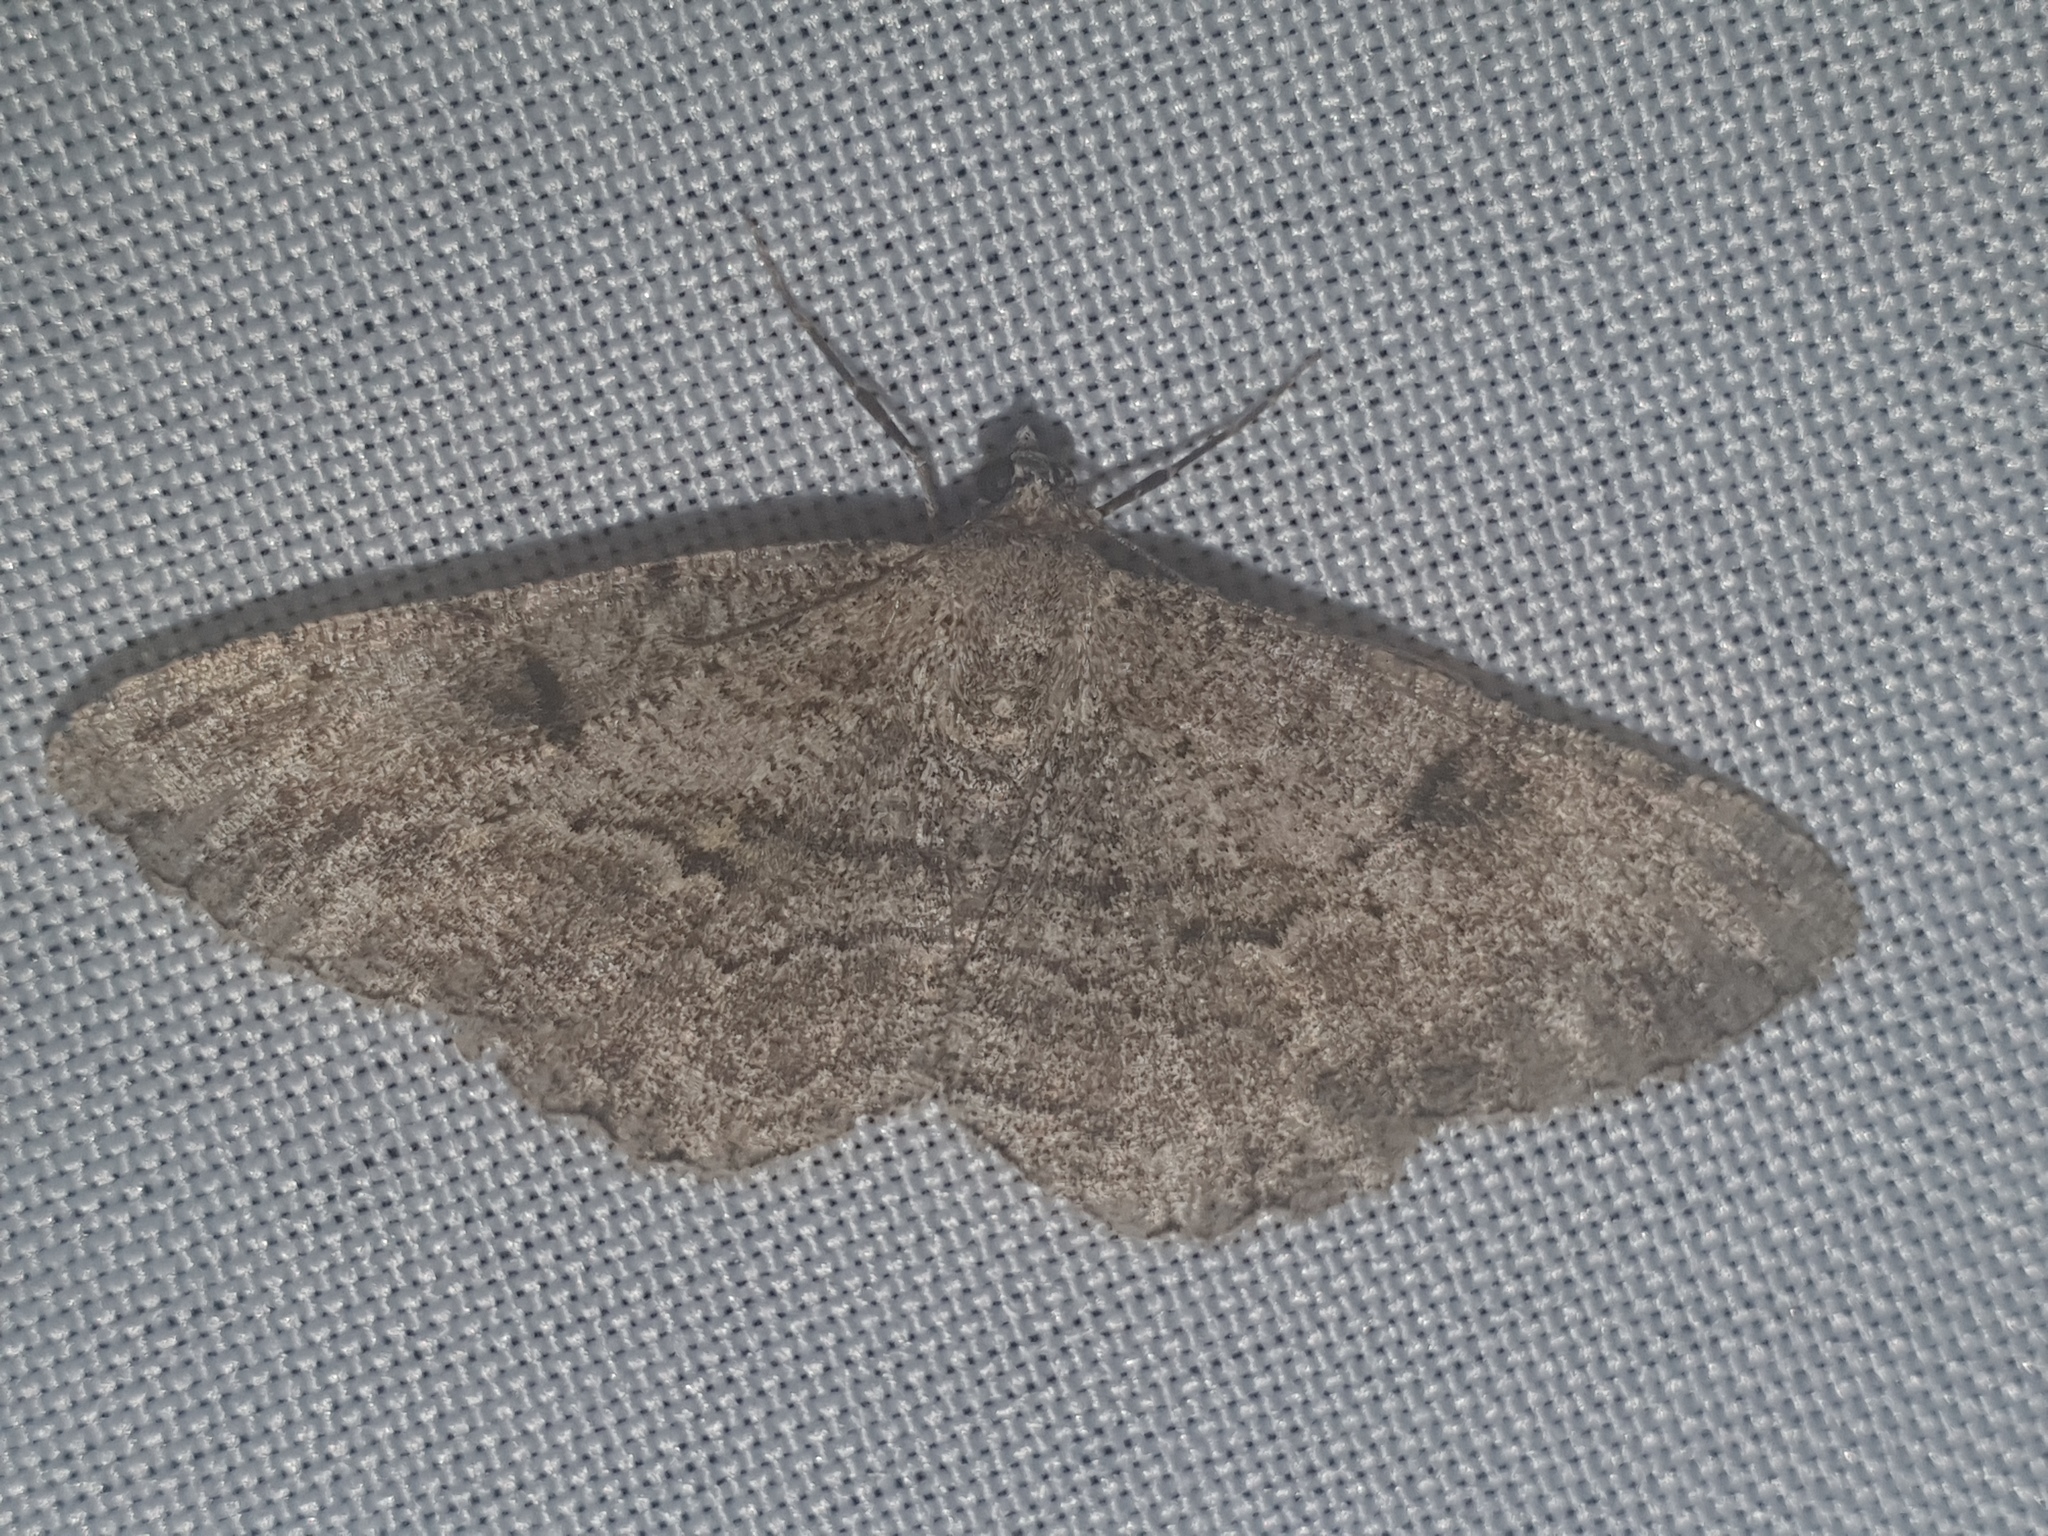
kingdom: Animalia
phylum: Arthropoda
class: Insecta
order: Lepidoptera
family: Geometridae
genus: Peribatodes
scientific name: Peribatodes rhomboidaria
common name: Willow beauty
